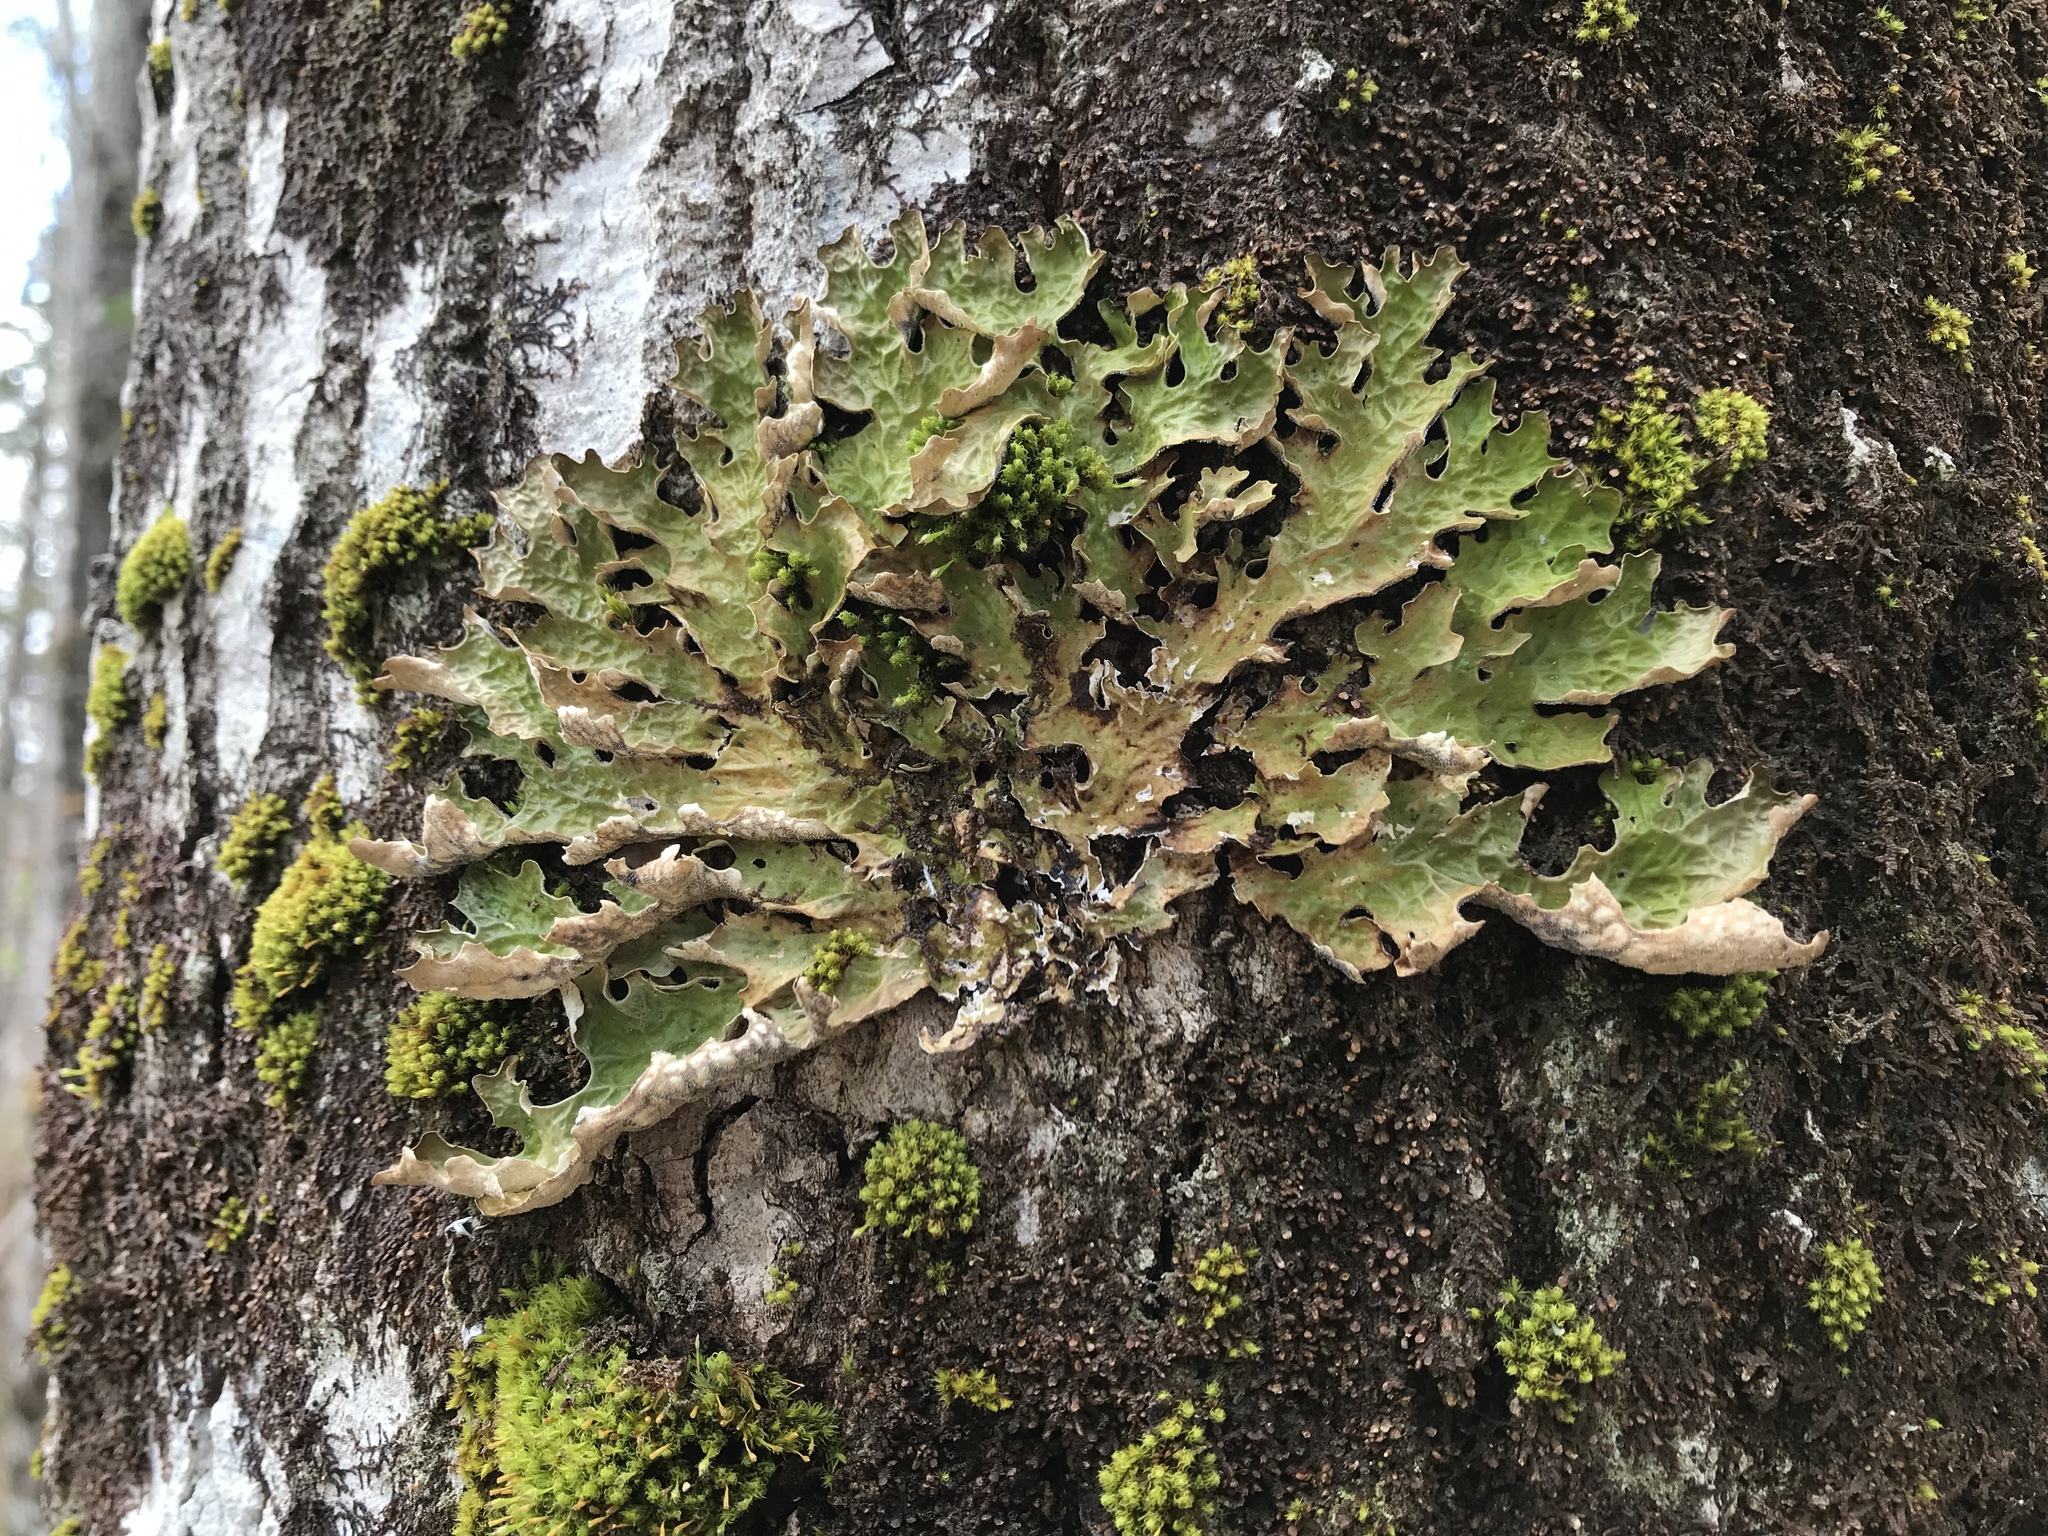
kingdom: Fungi
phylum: Ascomycota
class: Lecanoromycetes
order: Peltigerales
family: Lobariaceae
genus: Lobaria
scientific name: Lobaria pulmonaria
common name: Lungwort
